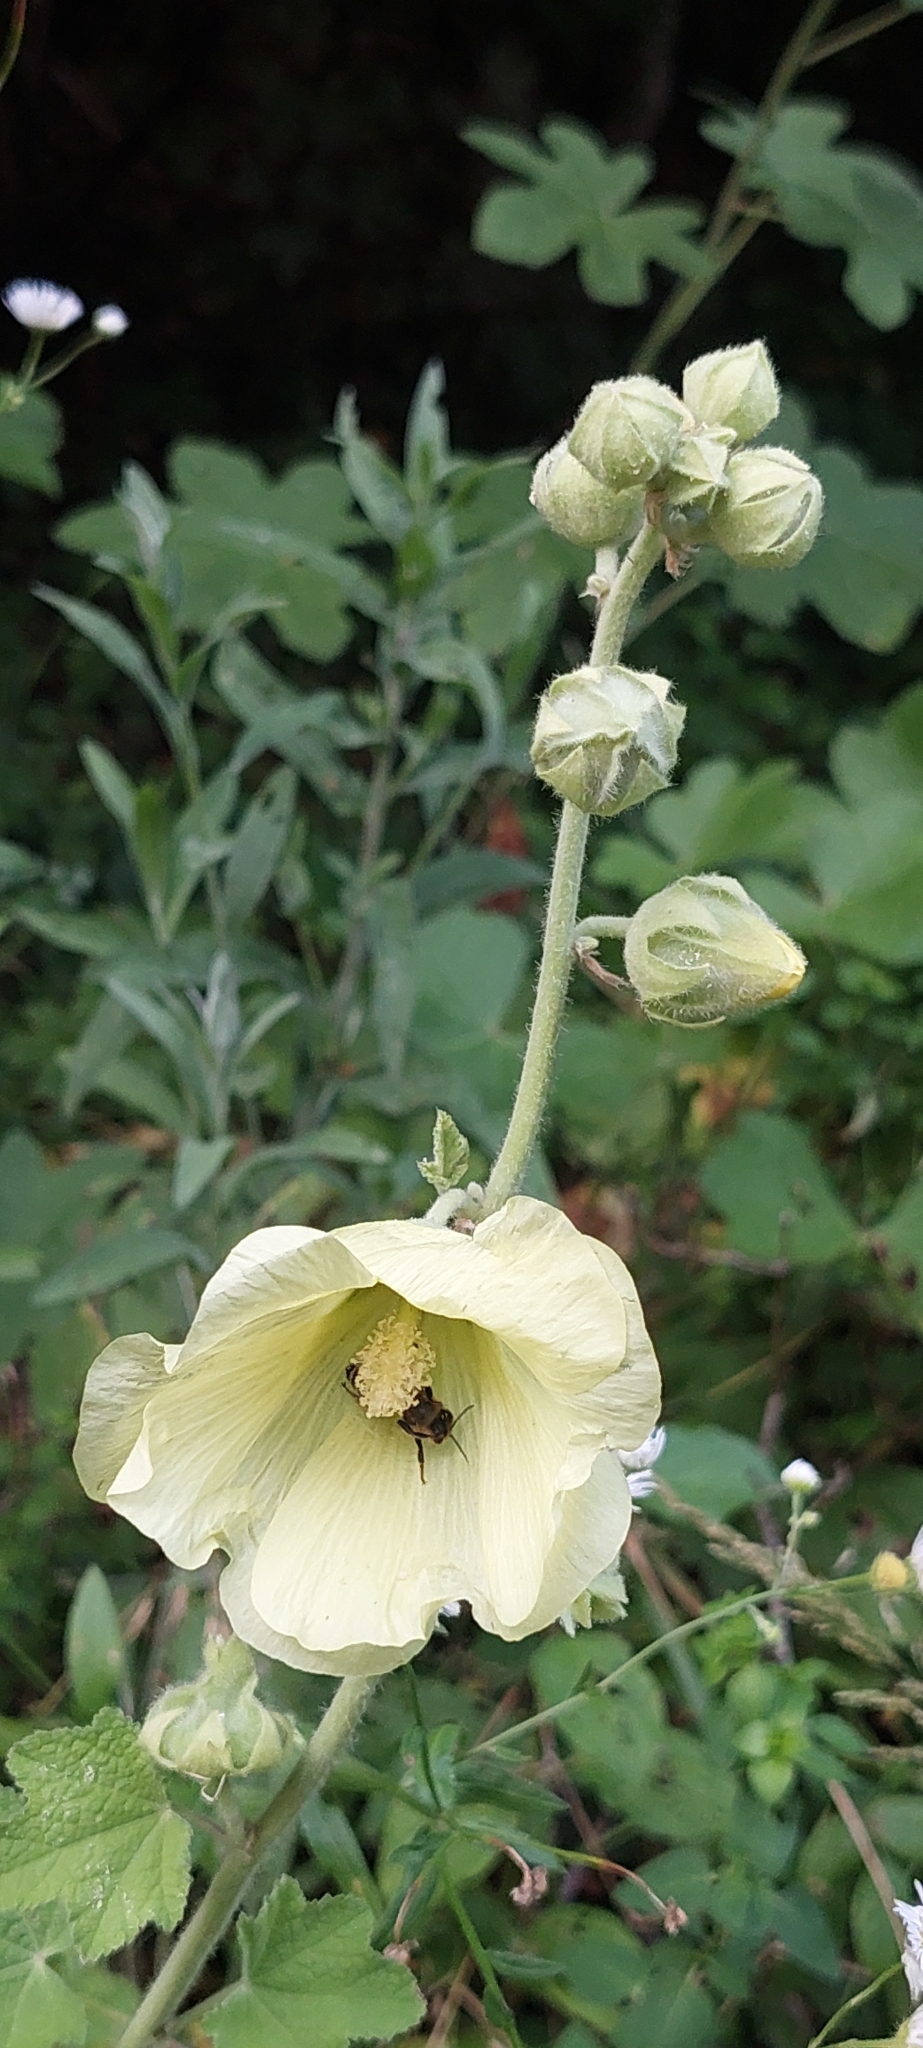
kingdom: Plantae
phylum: Tracheophyta
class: Magnoliopsida
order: Malvales
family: Malvaceae
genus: Alcea
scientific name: Alcea rugosa
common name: Russian hollyhock
